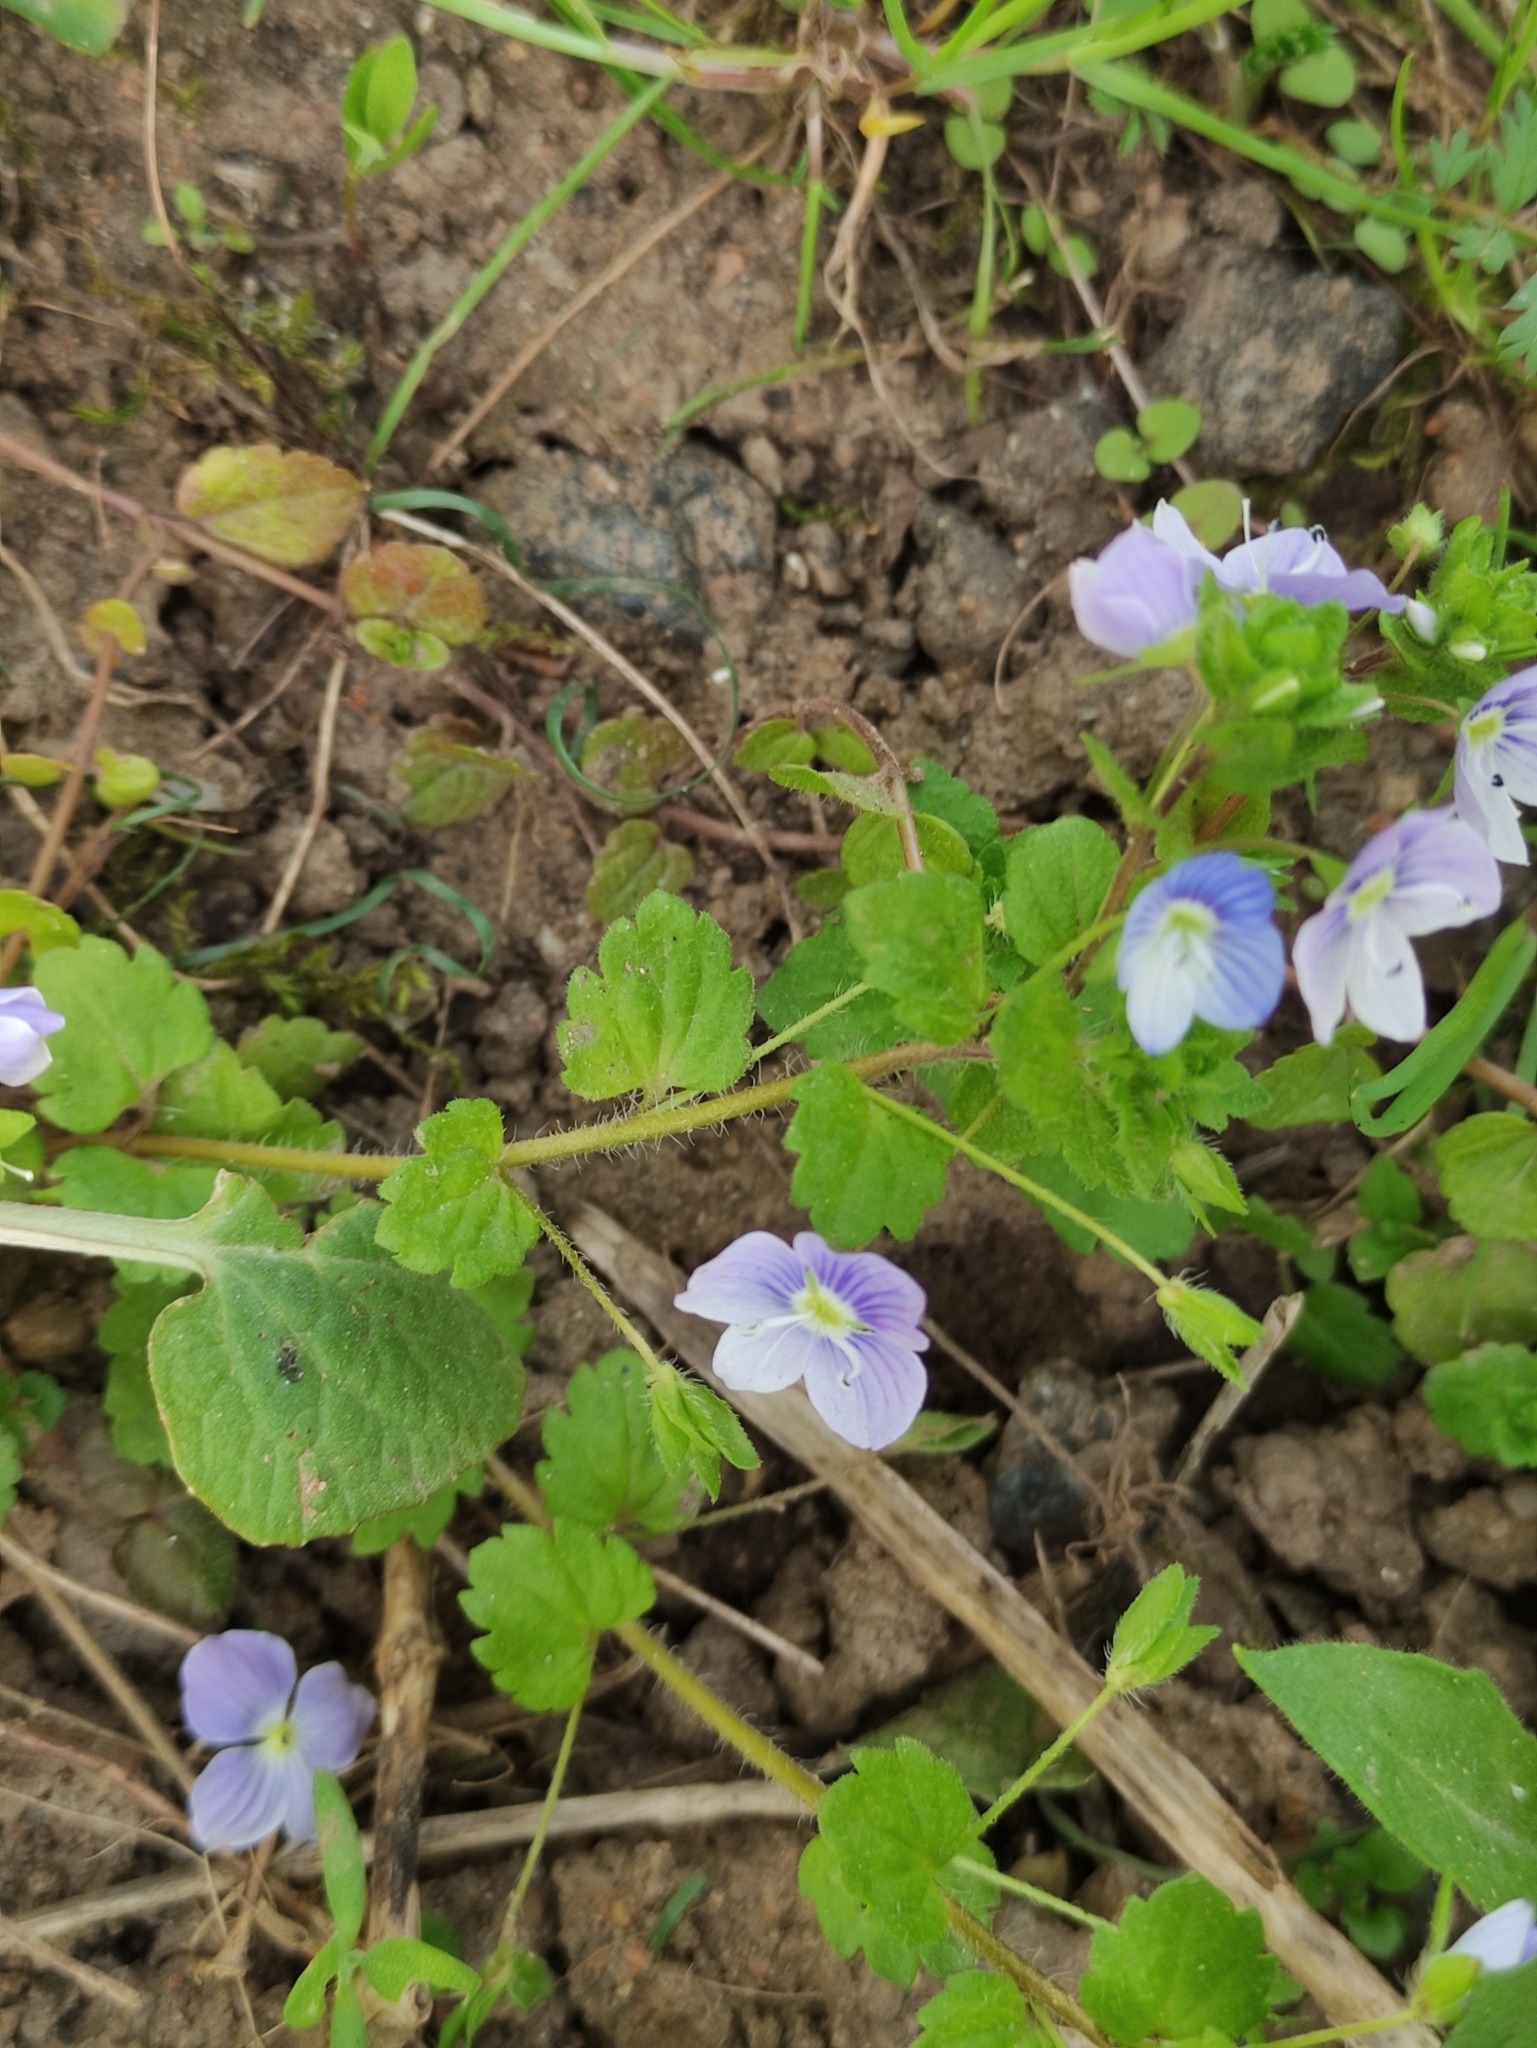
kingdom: Plantae
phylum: Tracheophyta
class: Magnoliopsida
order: Lamiales
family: Plantaginaceae
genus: Veronica
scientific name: Veronica filiformis
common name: Slender speedwell
